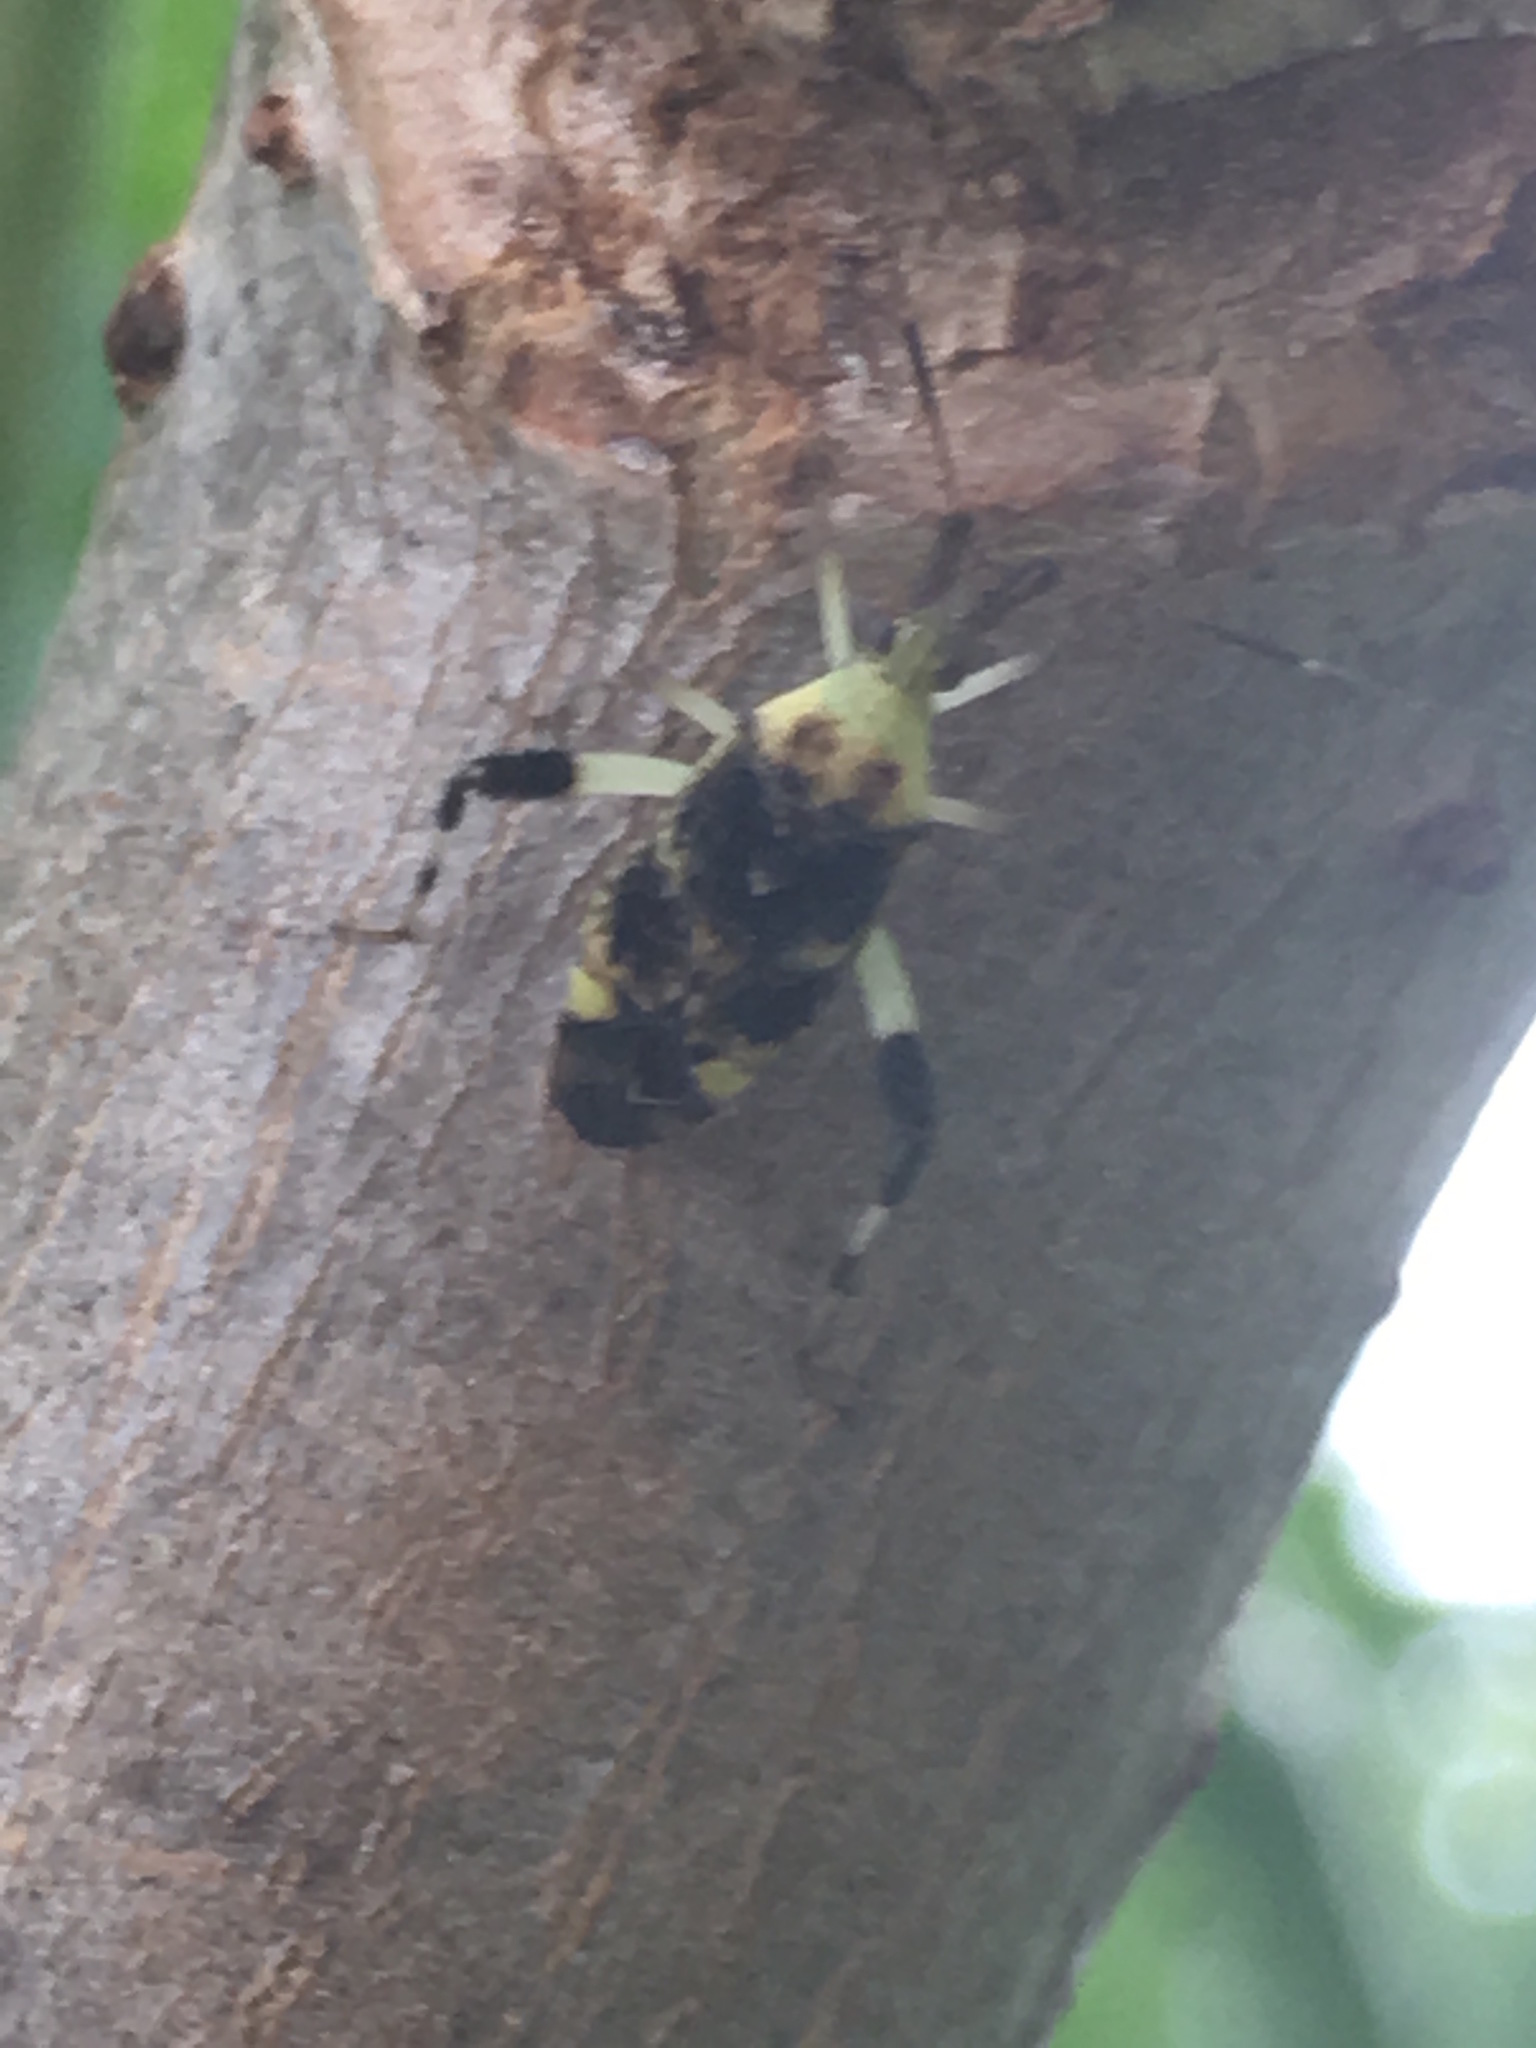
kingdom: Animalia
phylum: Arthropoda
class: Insecta
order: Hemiptera
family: Miridae
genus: Neurocolpus
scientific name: Neurocolpus jessiae
